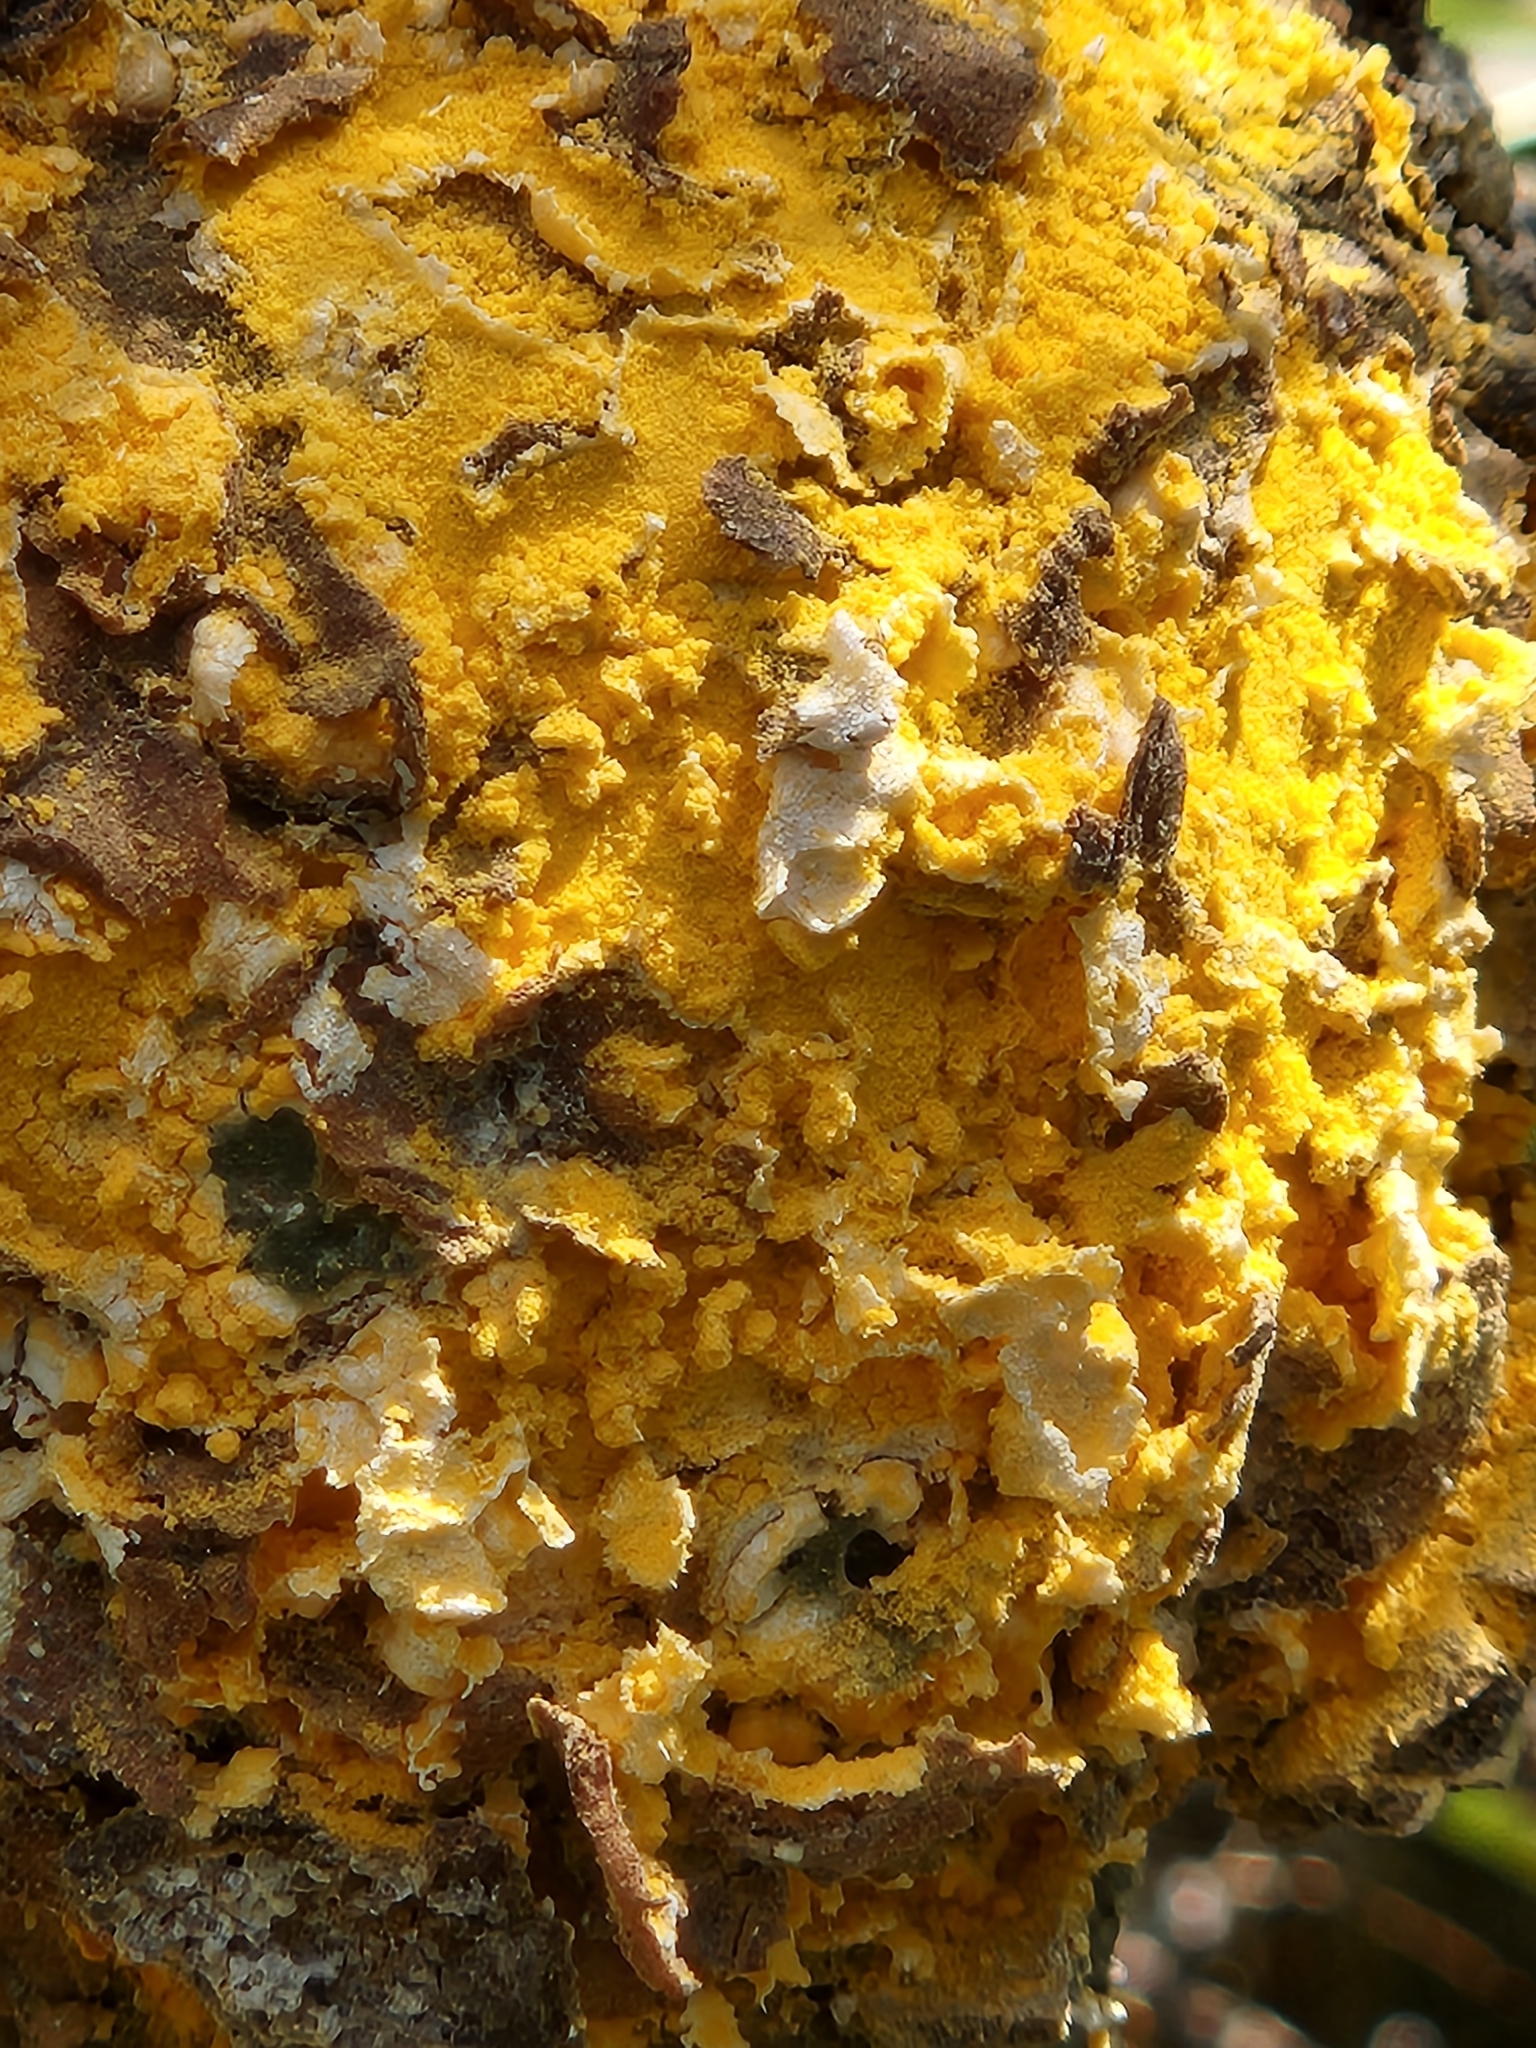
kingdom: Fungi
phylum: Basidiomycota
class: Pucciniomycetes
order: Pucciniales
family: Cronartiaceae
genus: Cronartium
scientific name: Cronartium harknessii
